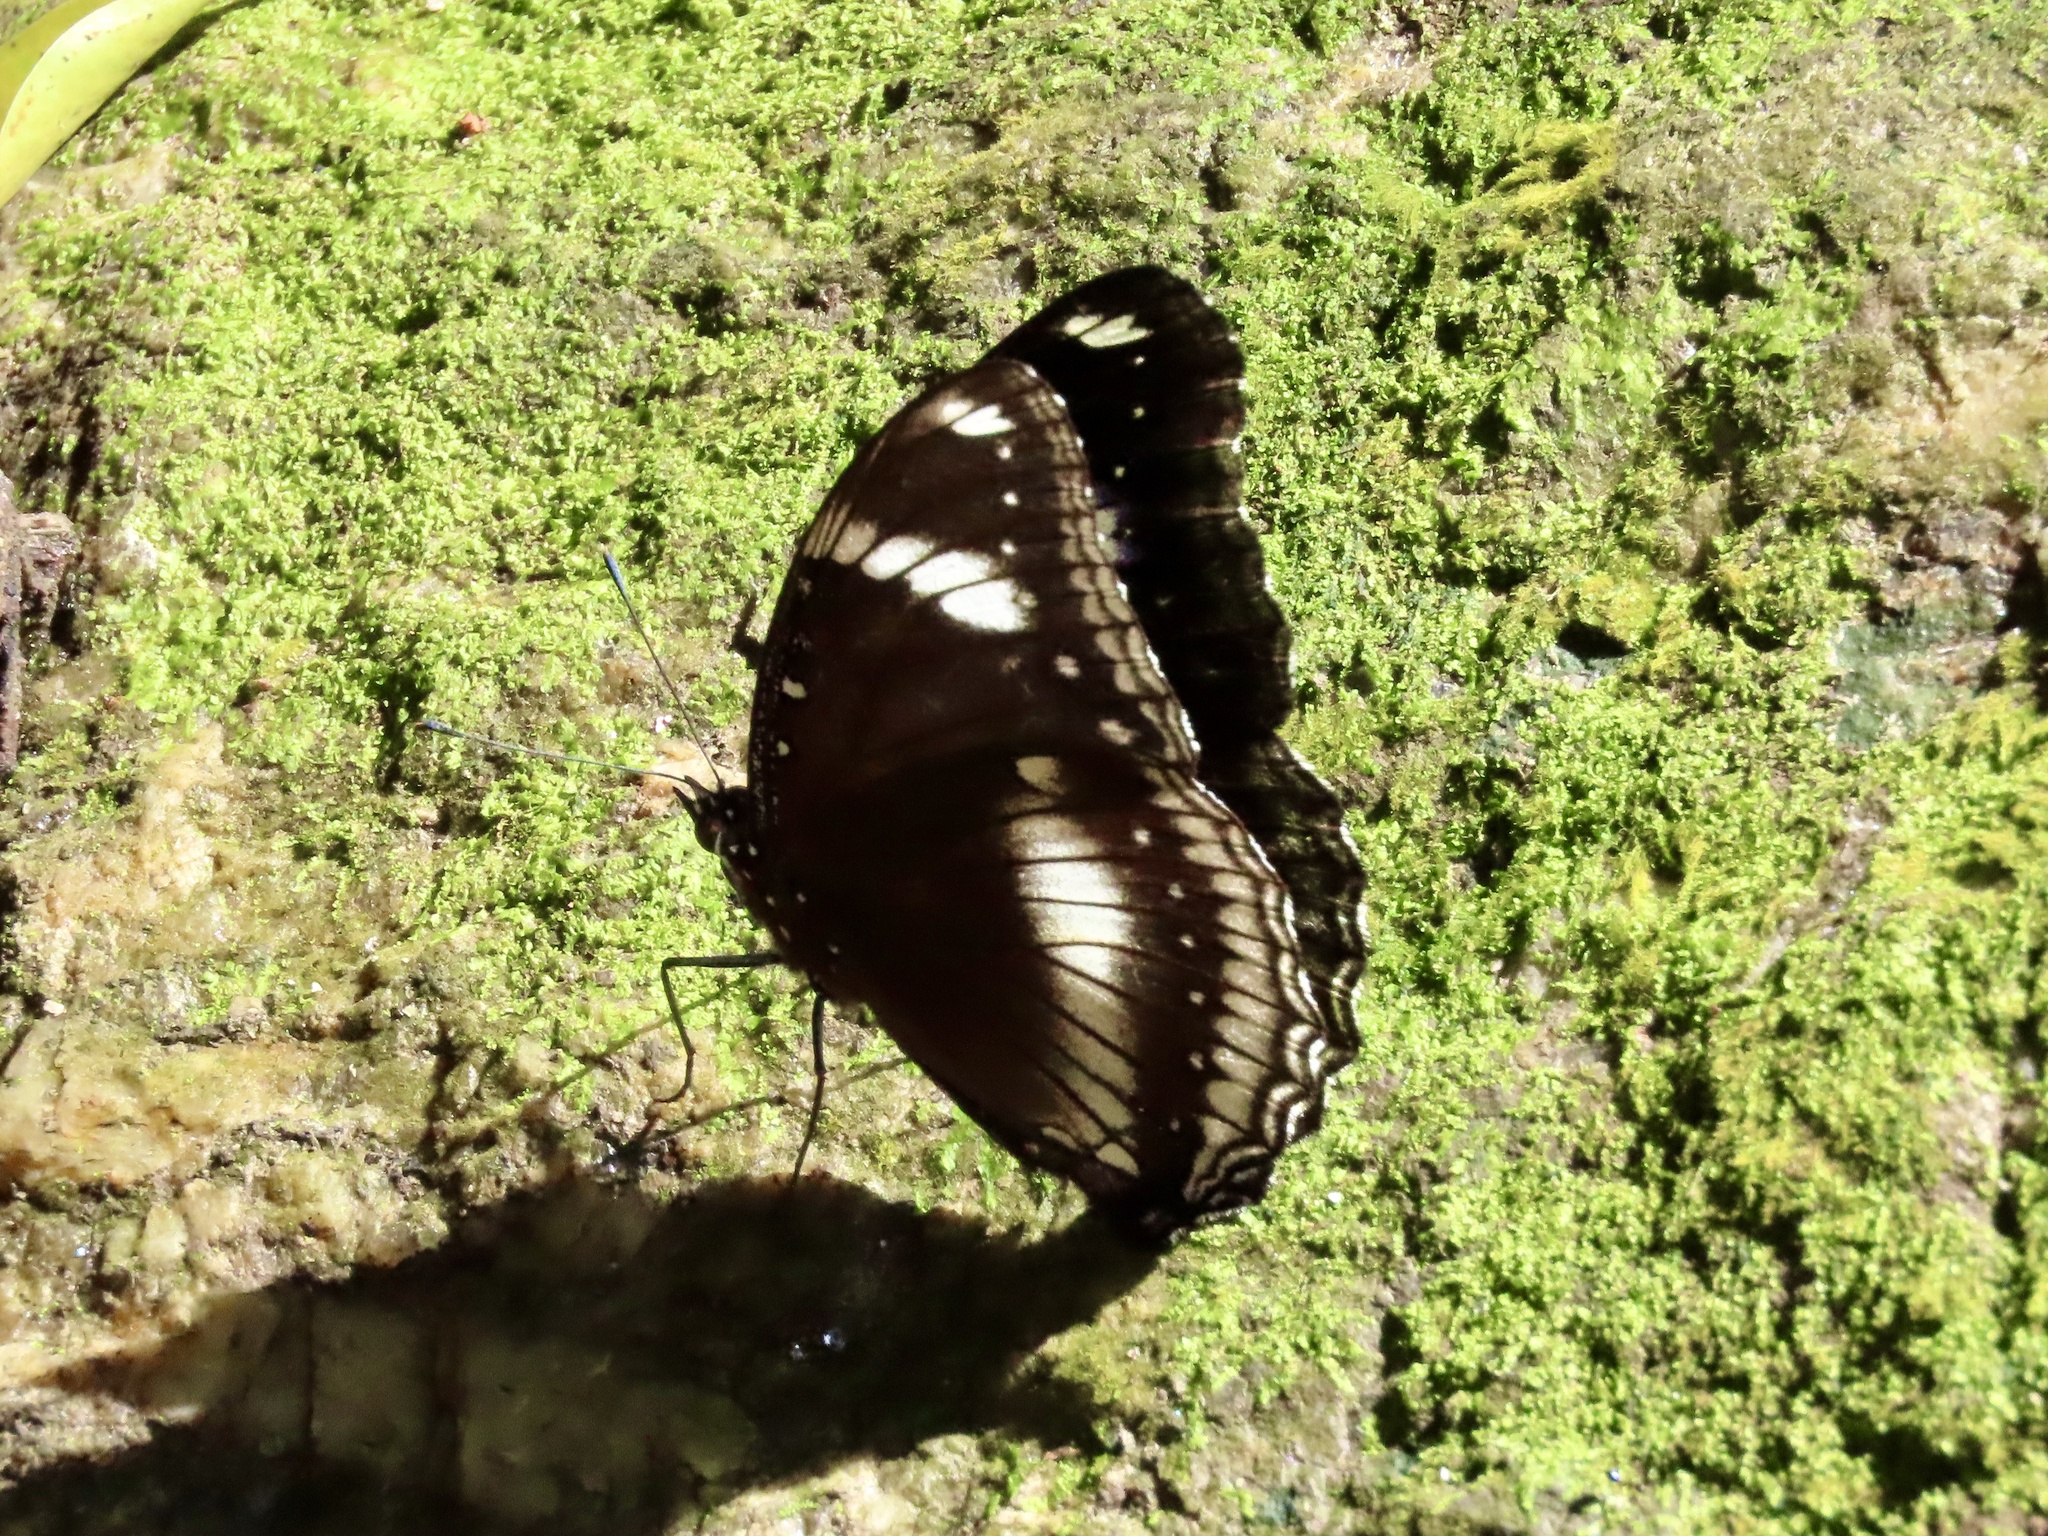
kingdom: Animalia
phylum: Arthropoda
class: Insecta
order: Lepidoptera
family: Nymphalidae
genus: Hypolimnas
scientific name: Hypolimnas bolina
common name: Great eggfly
